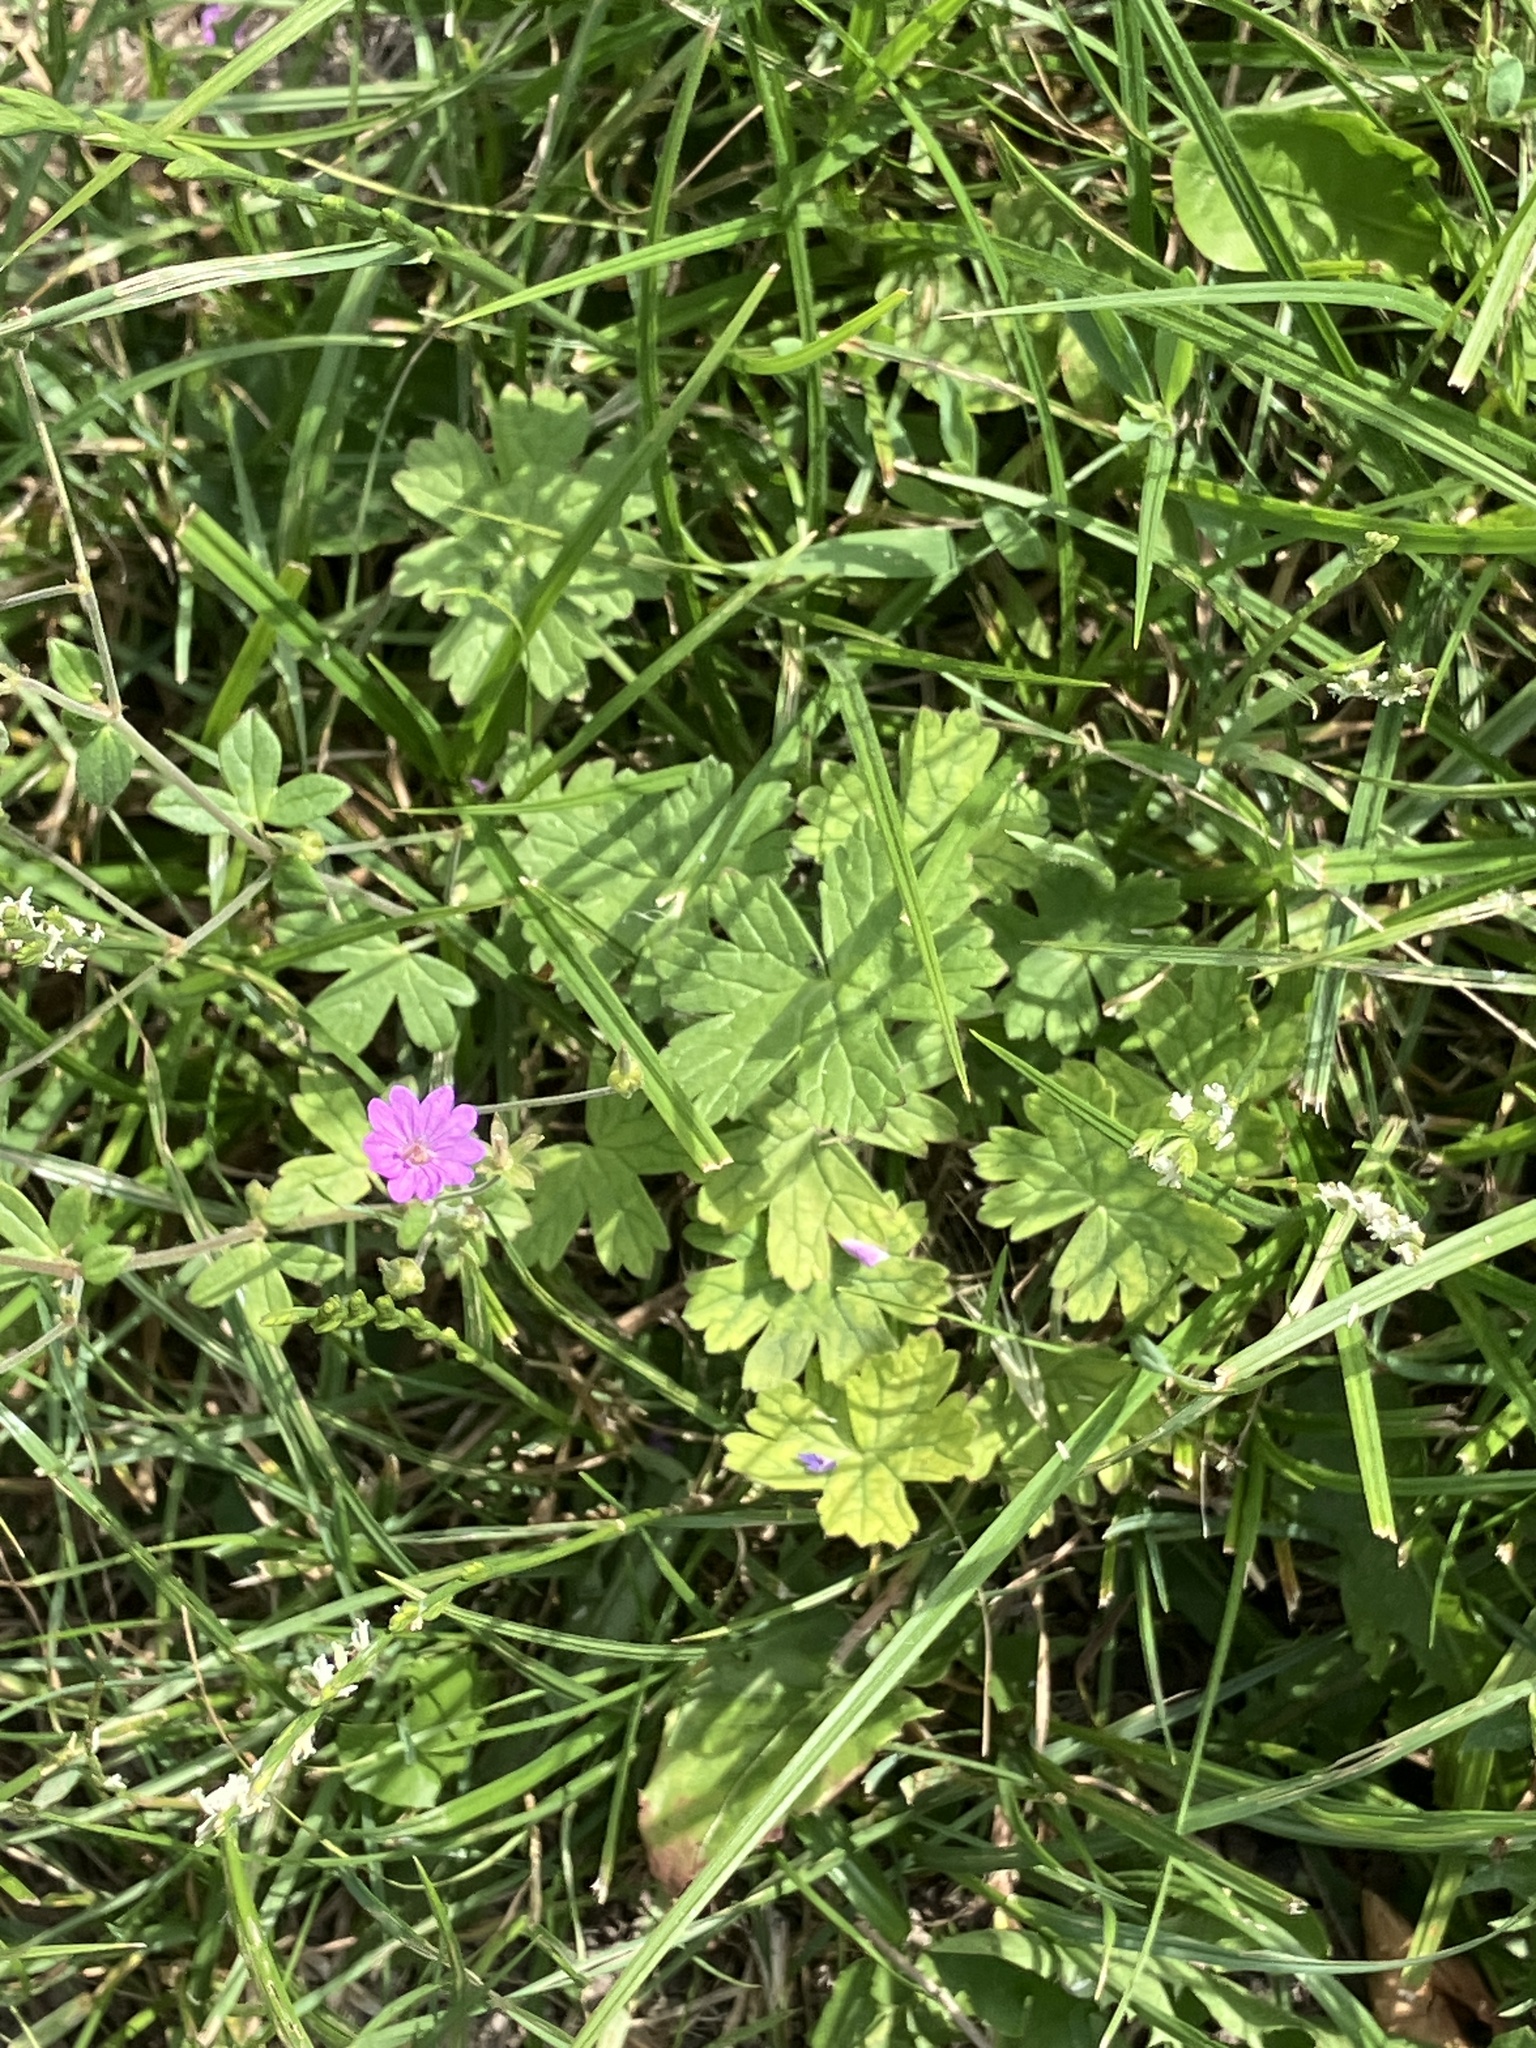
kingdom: Plantae
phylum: Tracheophyta
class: Magnoliopsida
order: Geraniales
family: Geraniaceae
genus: Geranium
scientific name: Geranium pyrenaicum
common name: Hedgerow crane's-bill
